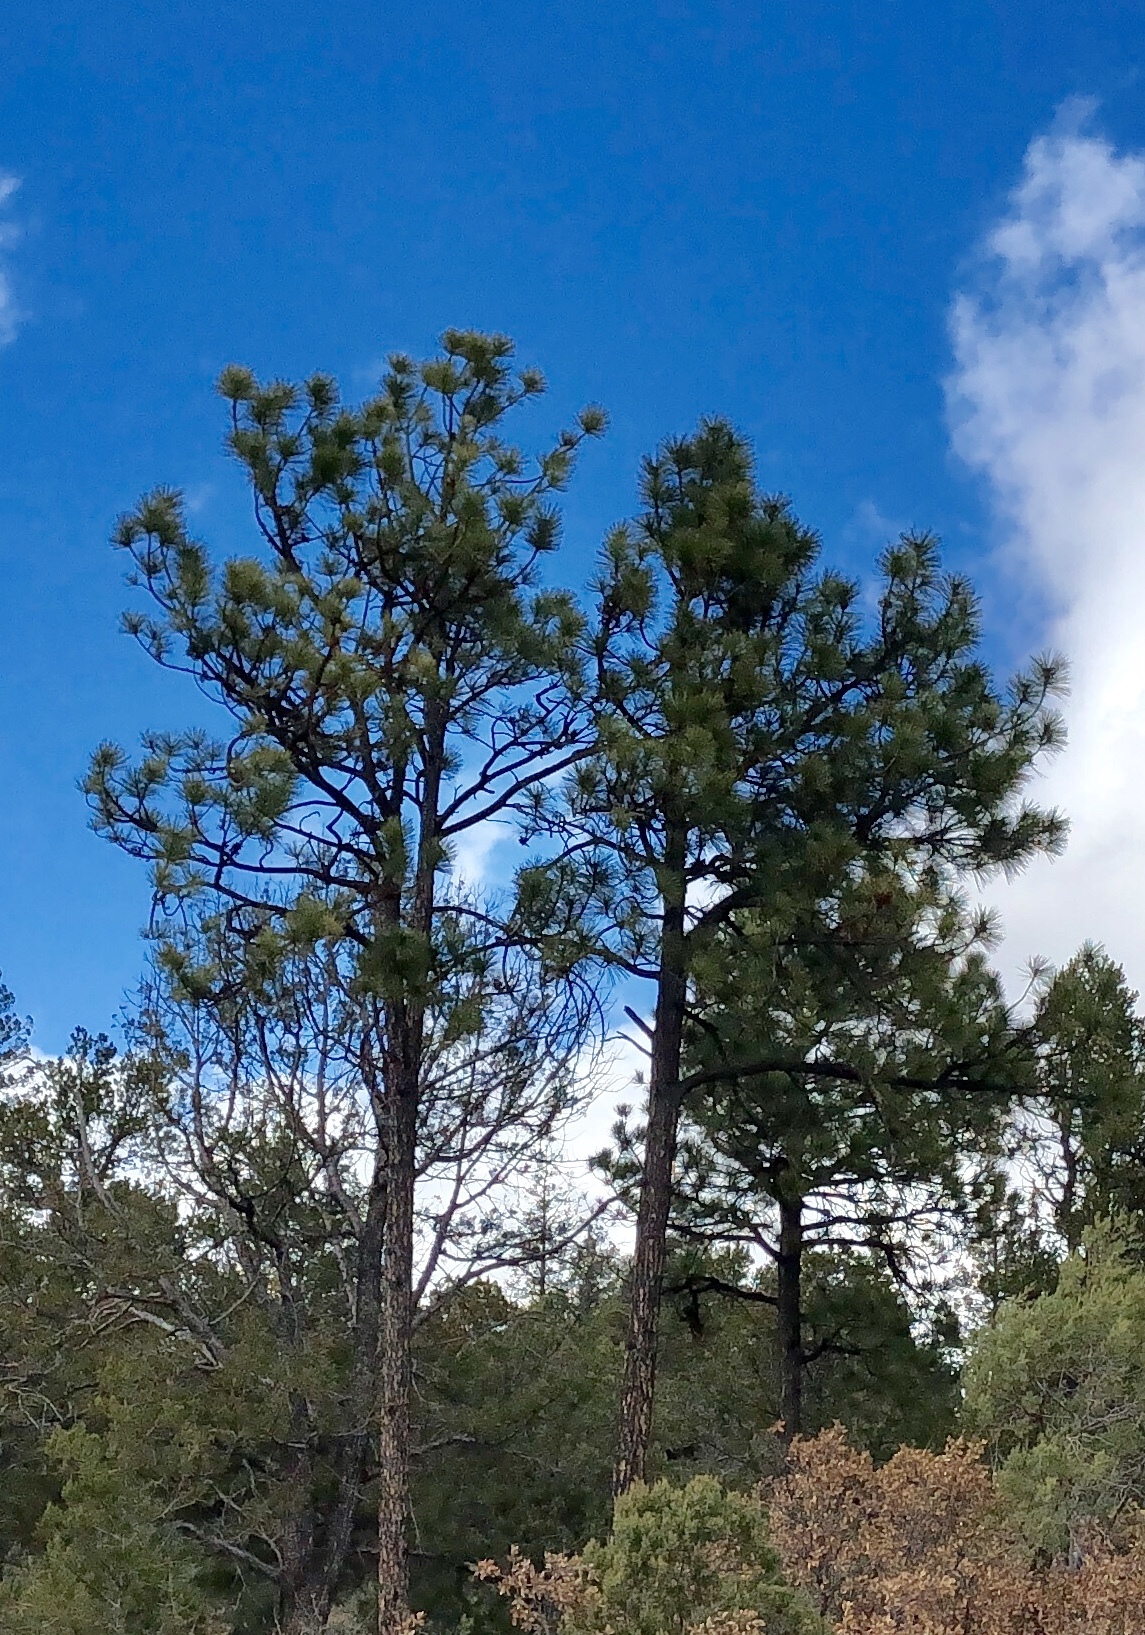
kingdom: Plantae
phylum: Tracheophyta
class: Pinopsida
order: Pinales
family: Pinaceae
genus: Pinus
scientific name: Pinus ponderosa
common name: Western yellow-pine
